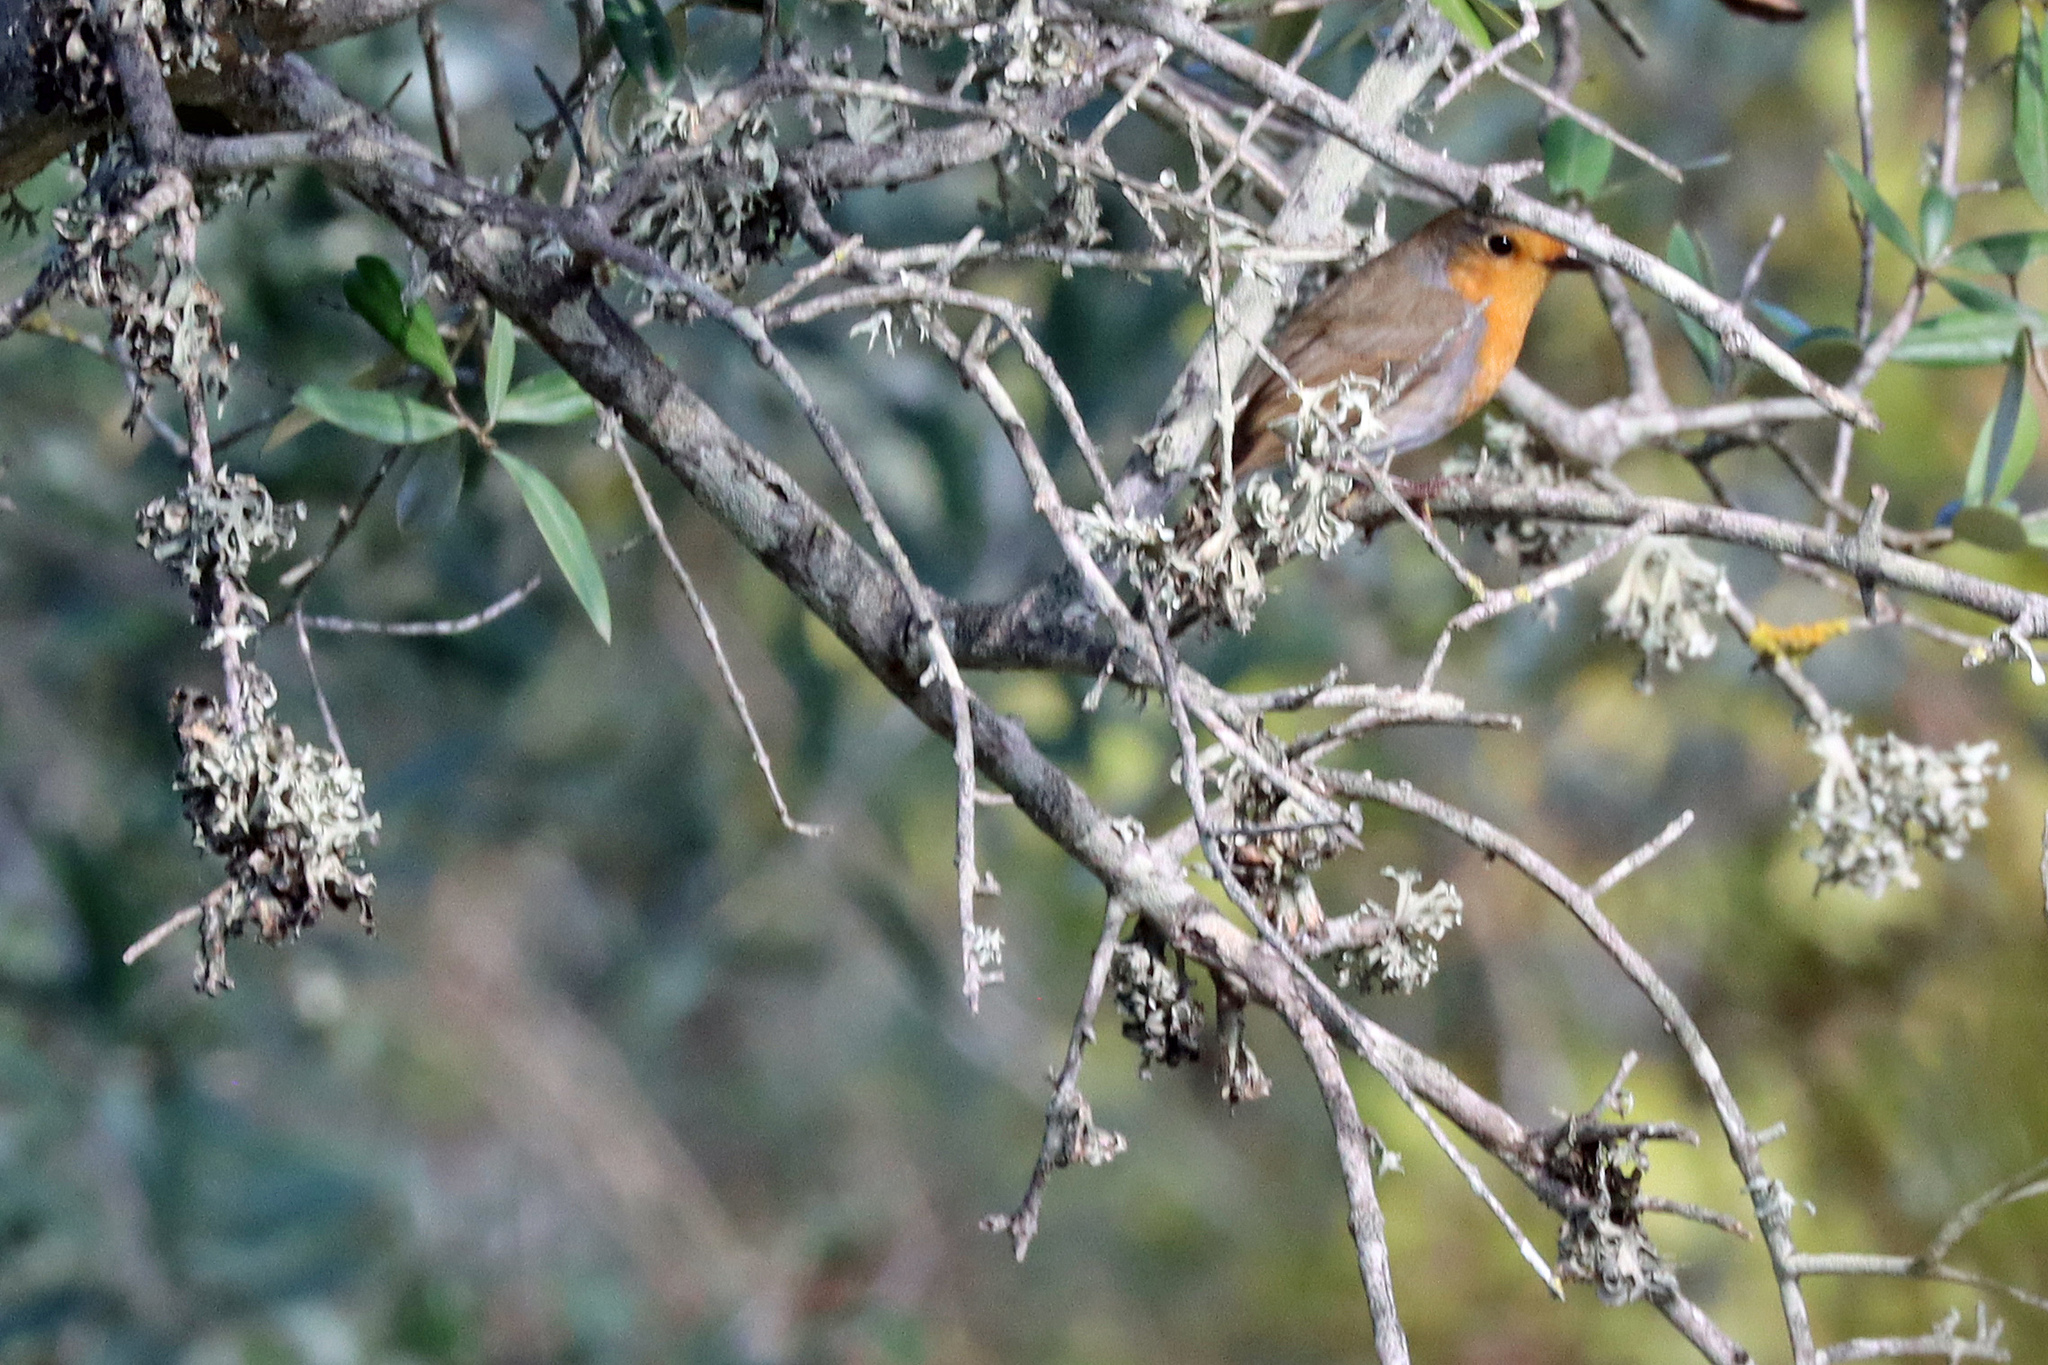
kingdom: Animalia
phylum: Chordata
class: Aves
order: Passeriformes
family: Muscicapidae
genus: Erithacus
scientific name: Erithacus rubecula
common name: European robin
